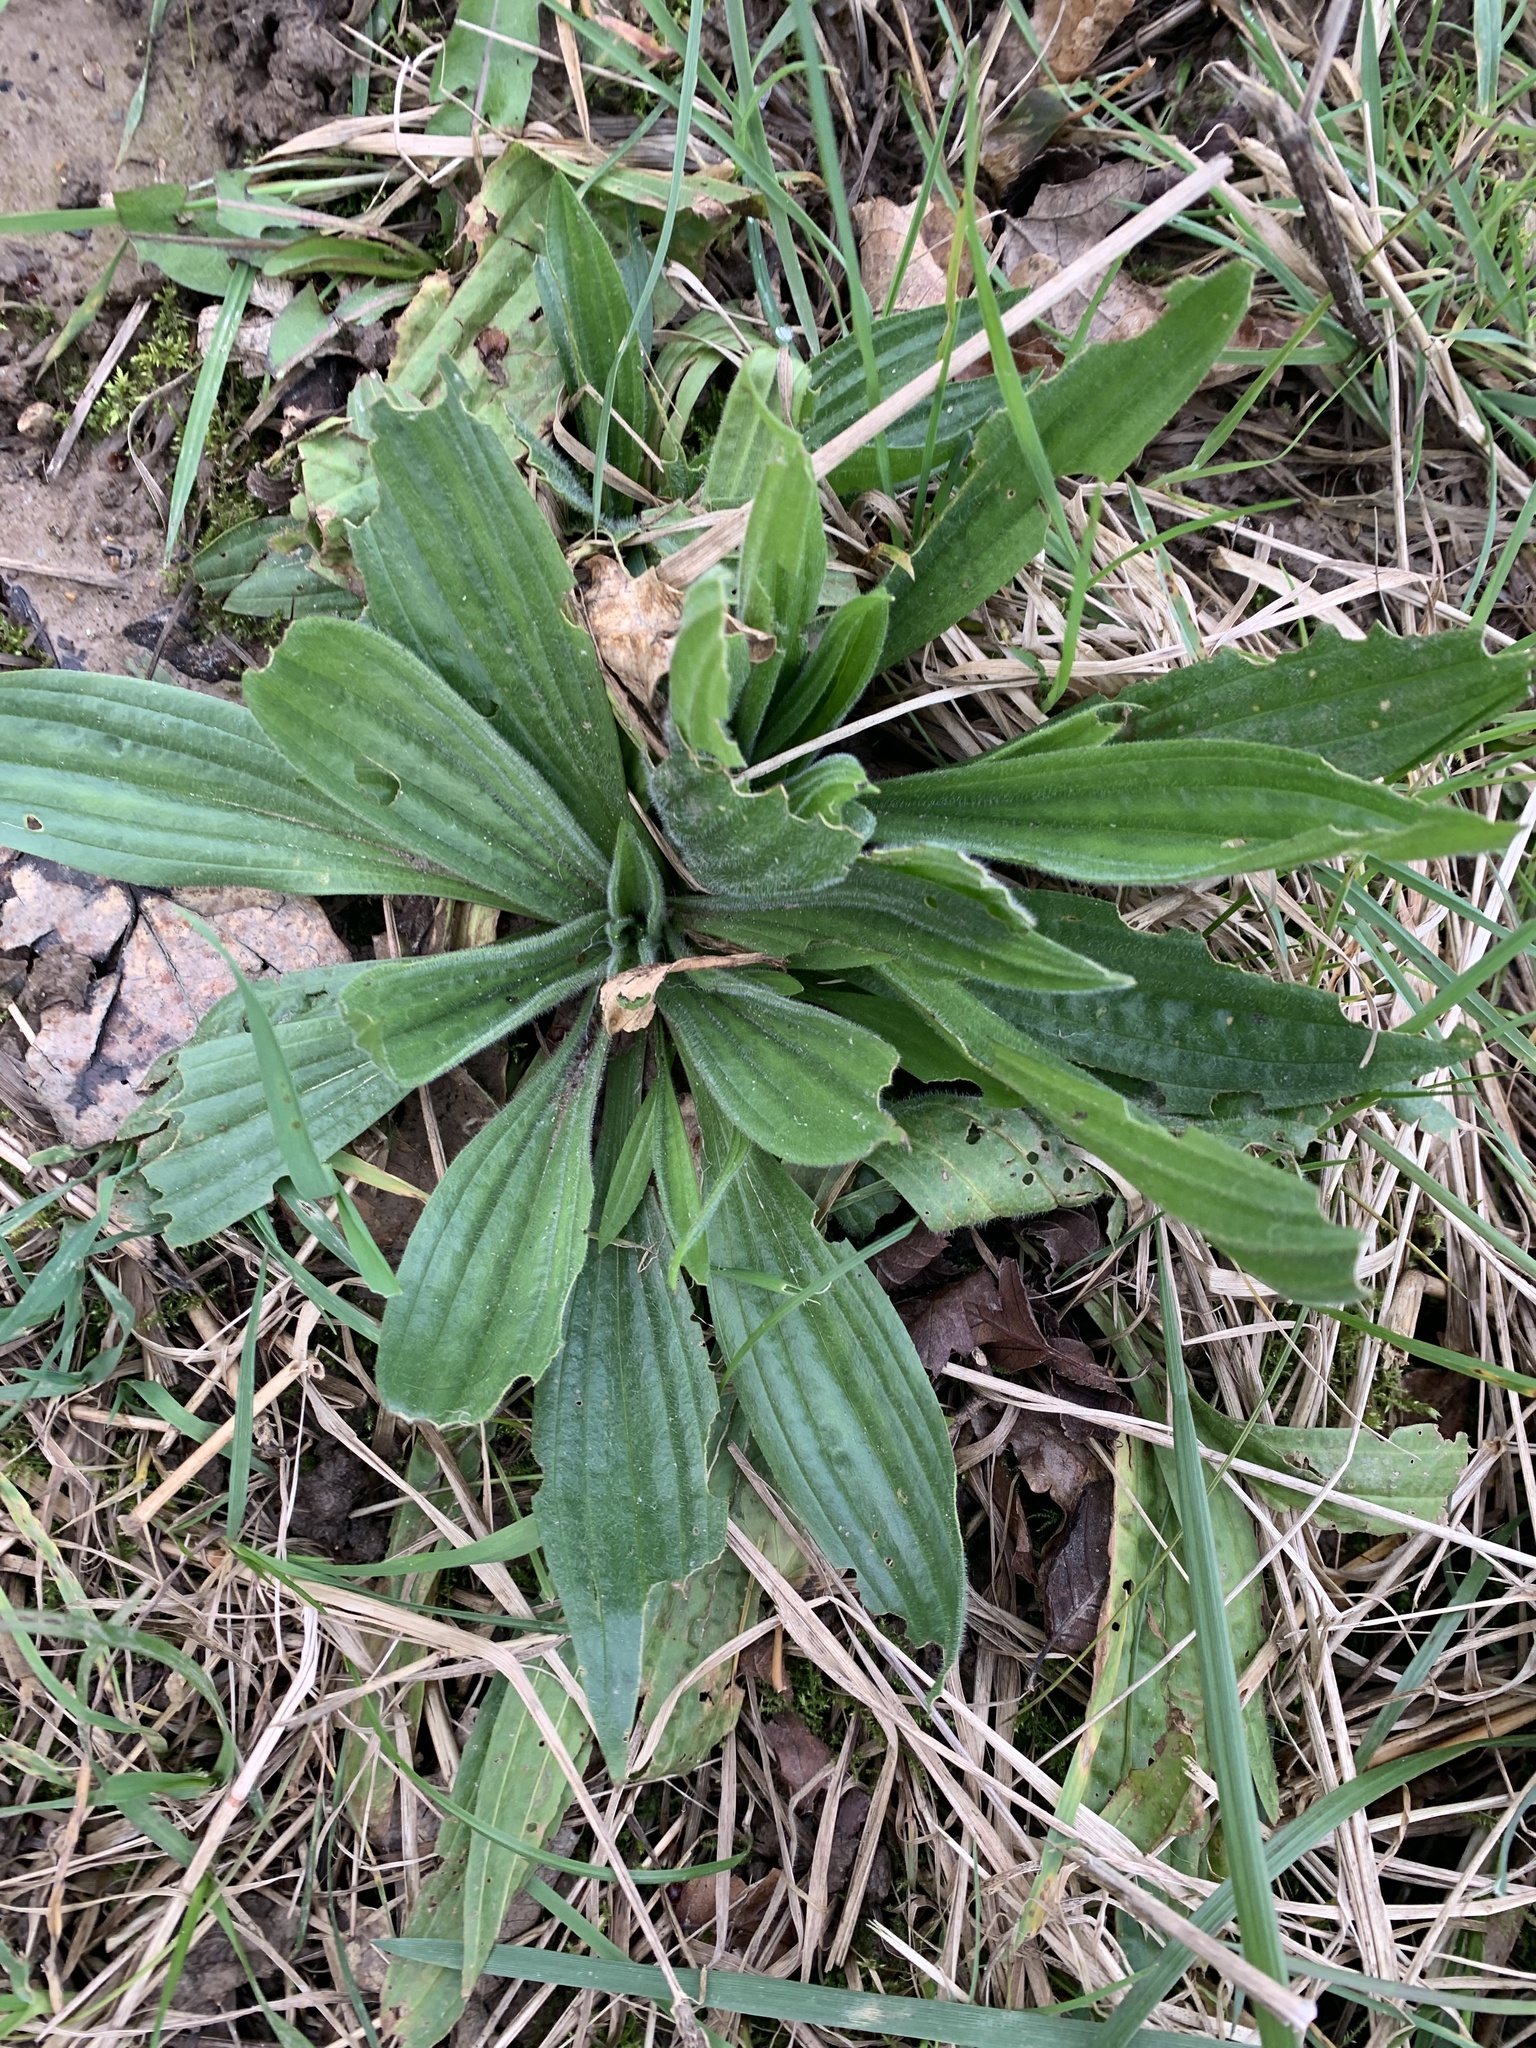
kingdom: Plantae
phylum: Tracheophyta
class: Magnoliopsida
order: Lamiales
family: Plantaginaceae
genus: Plantago
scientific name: Plantago lanceolata
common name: Ribwort plantain
